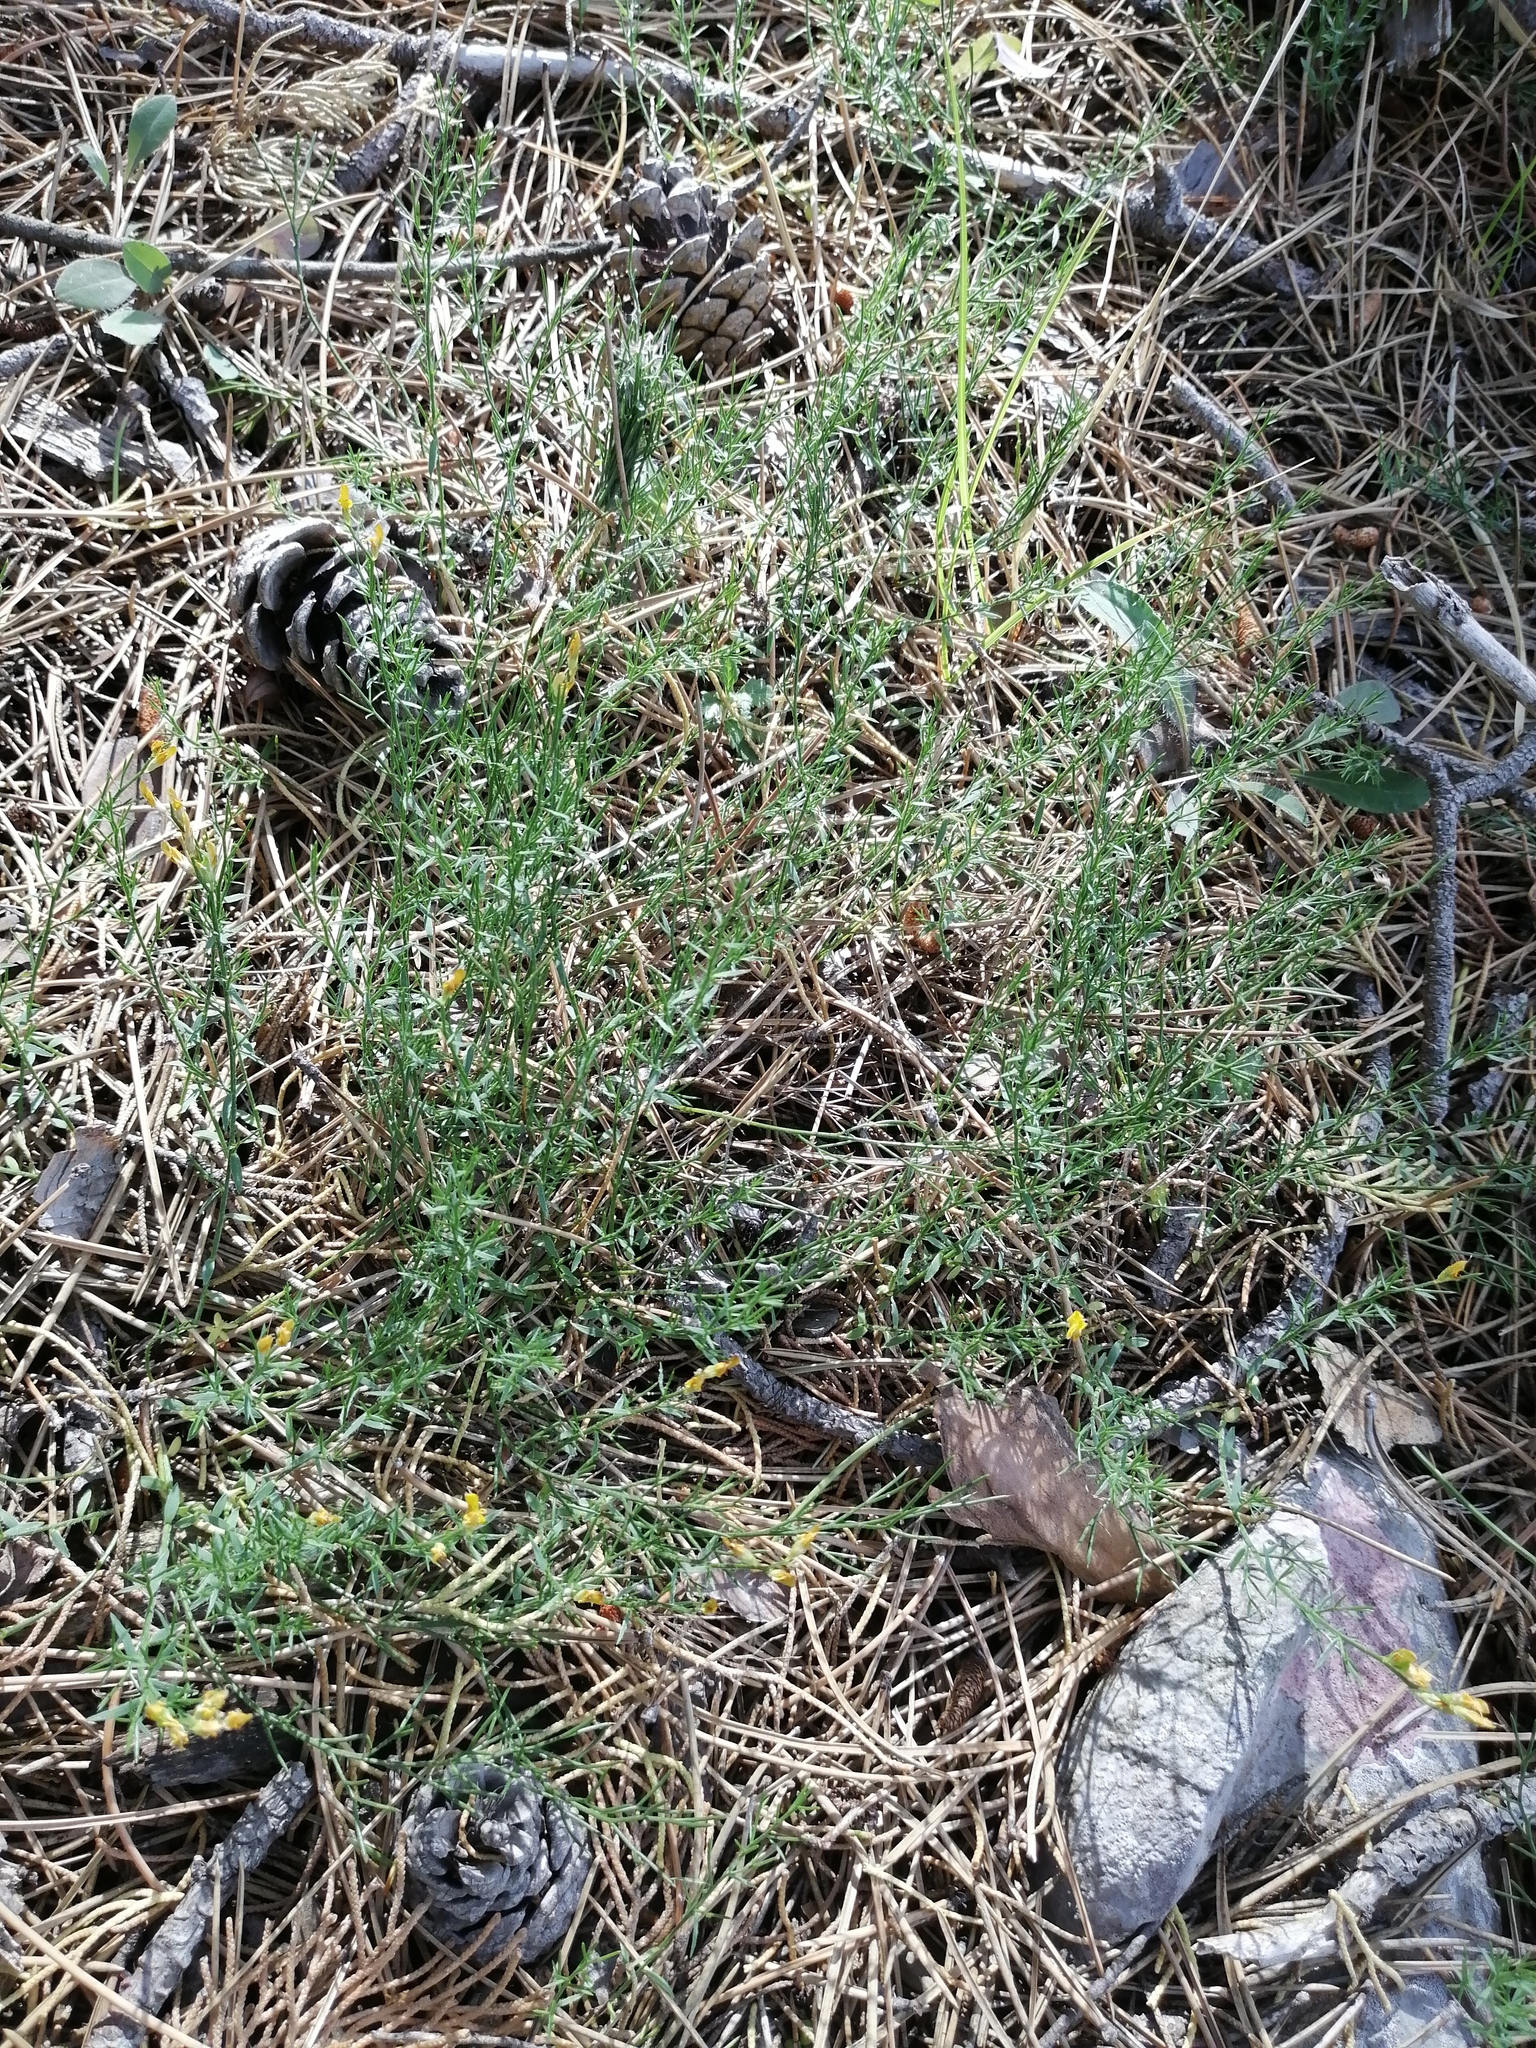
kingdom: Plantae
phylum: Tracheophyta
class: Magnoliopsida
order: Fabales
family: Fabaceae
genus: Genista
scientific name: Genista sylvestris
